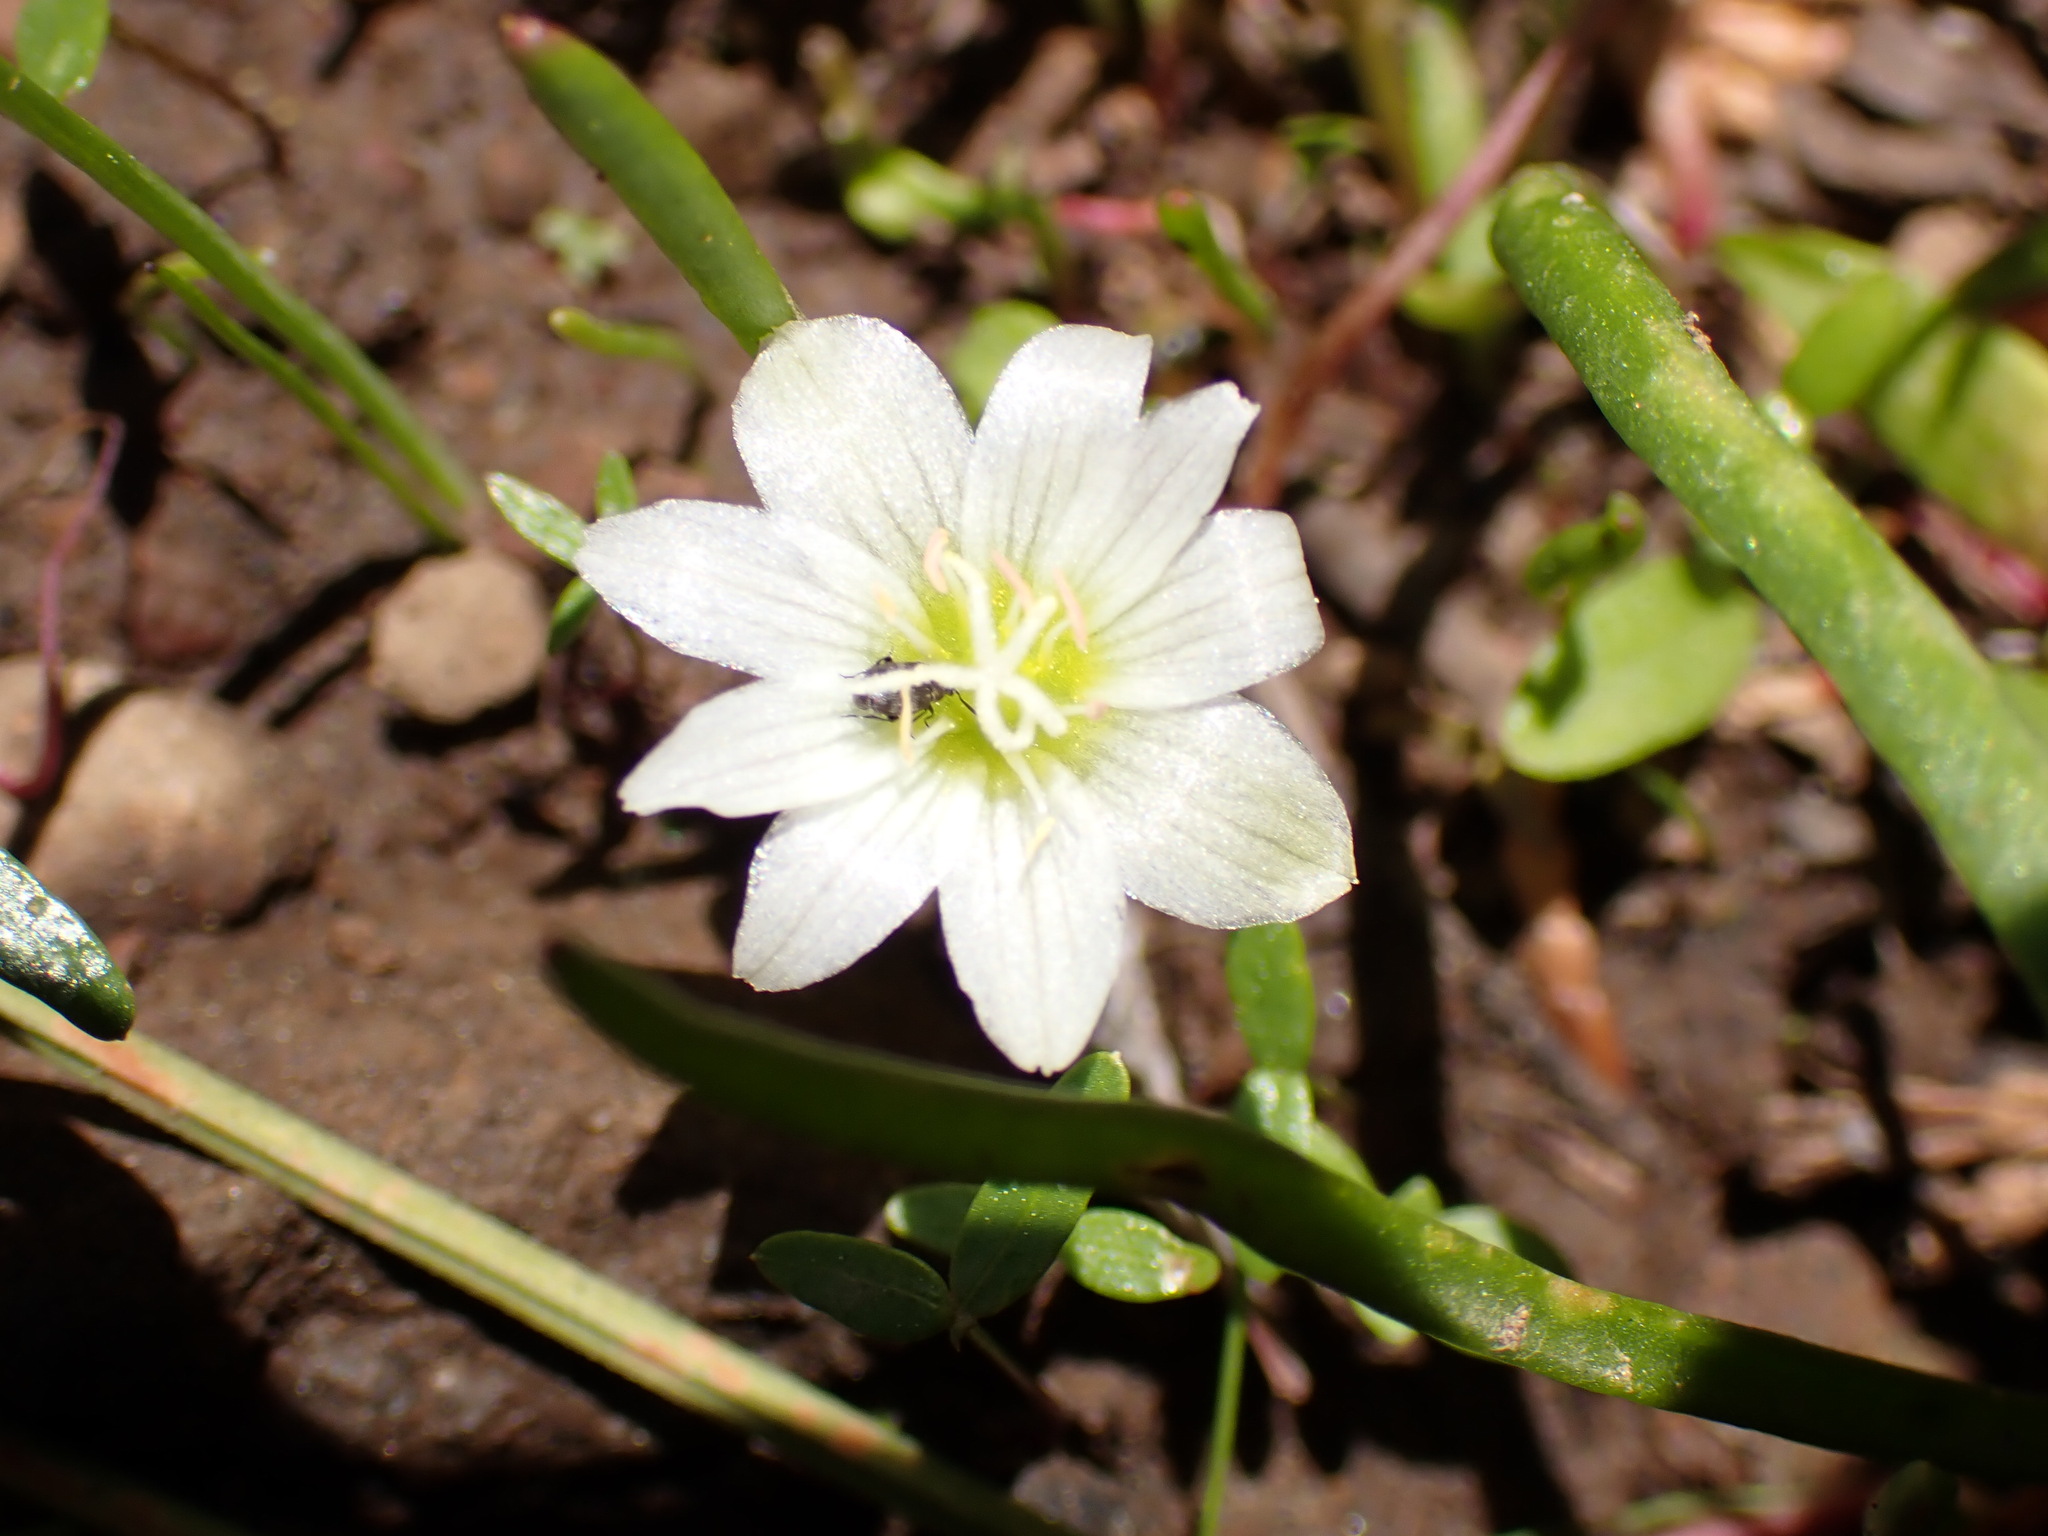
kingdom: Plantae
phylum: Tracheophyta
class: Magnoliopsida
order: Caryophyllales
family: Montiaceae
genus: Lewisia
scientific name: Lewisia nevadensis
